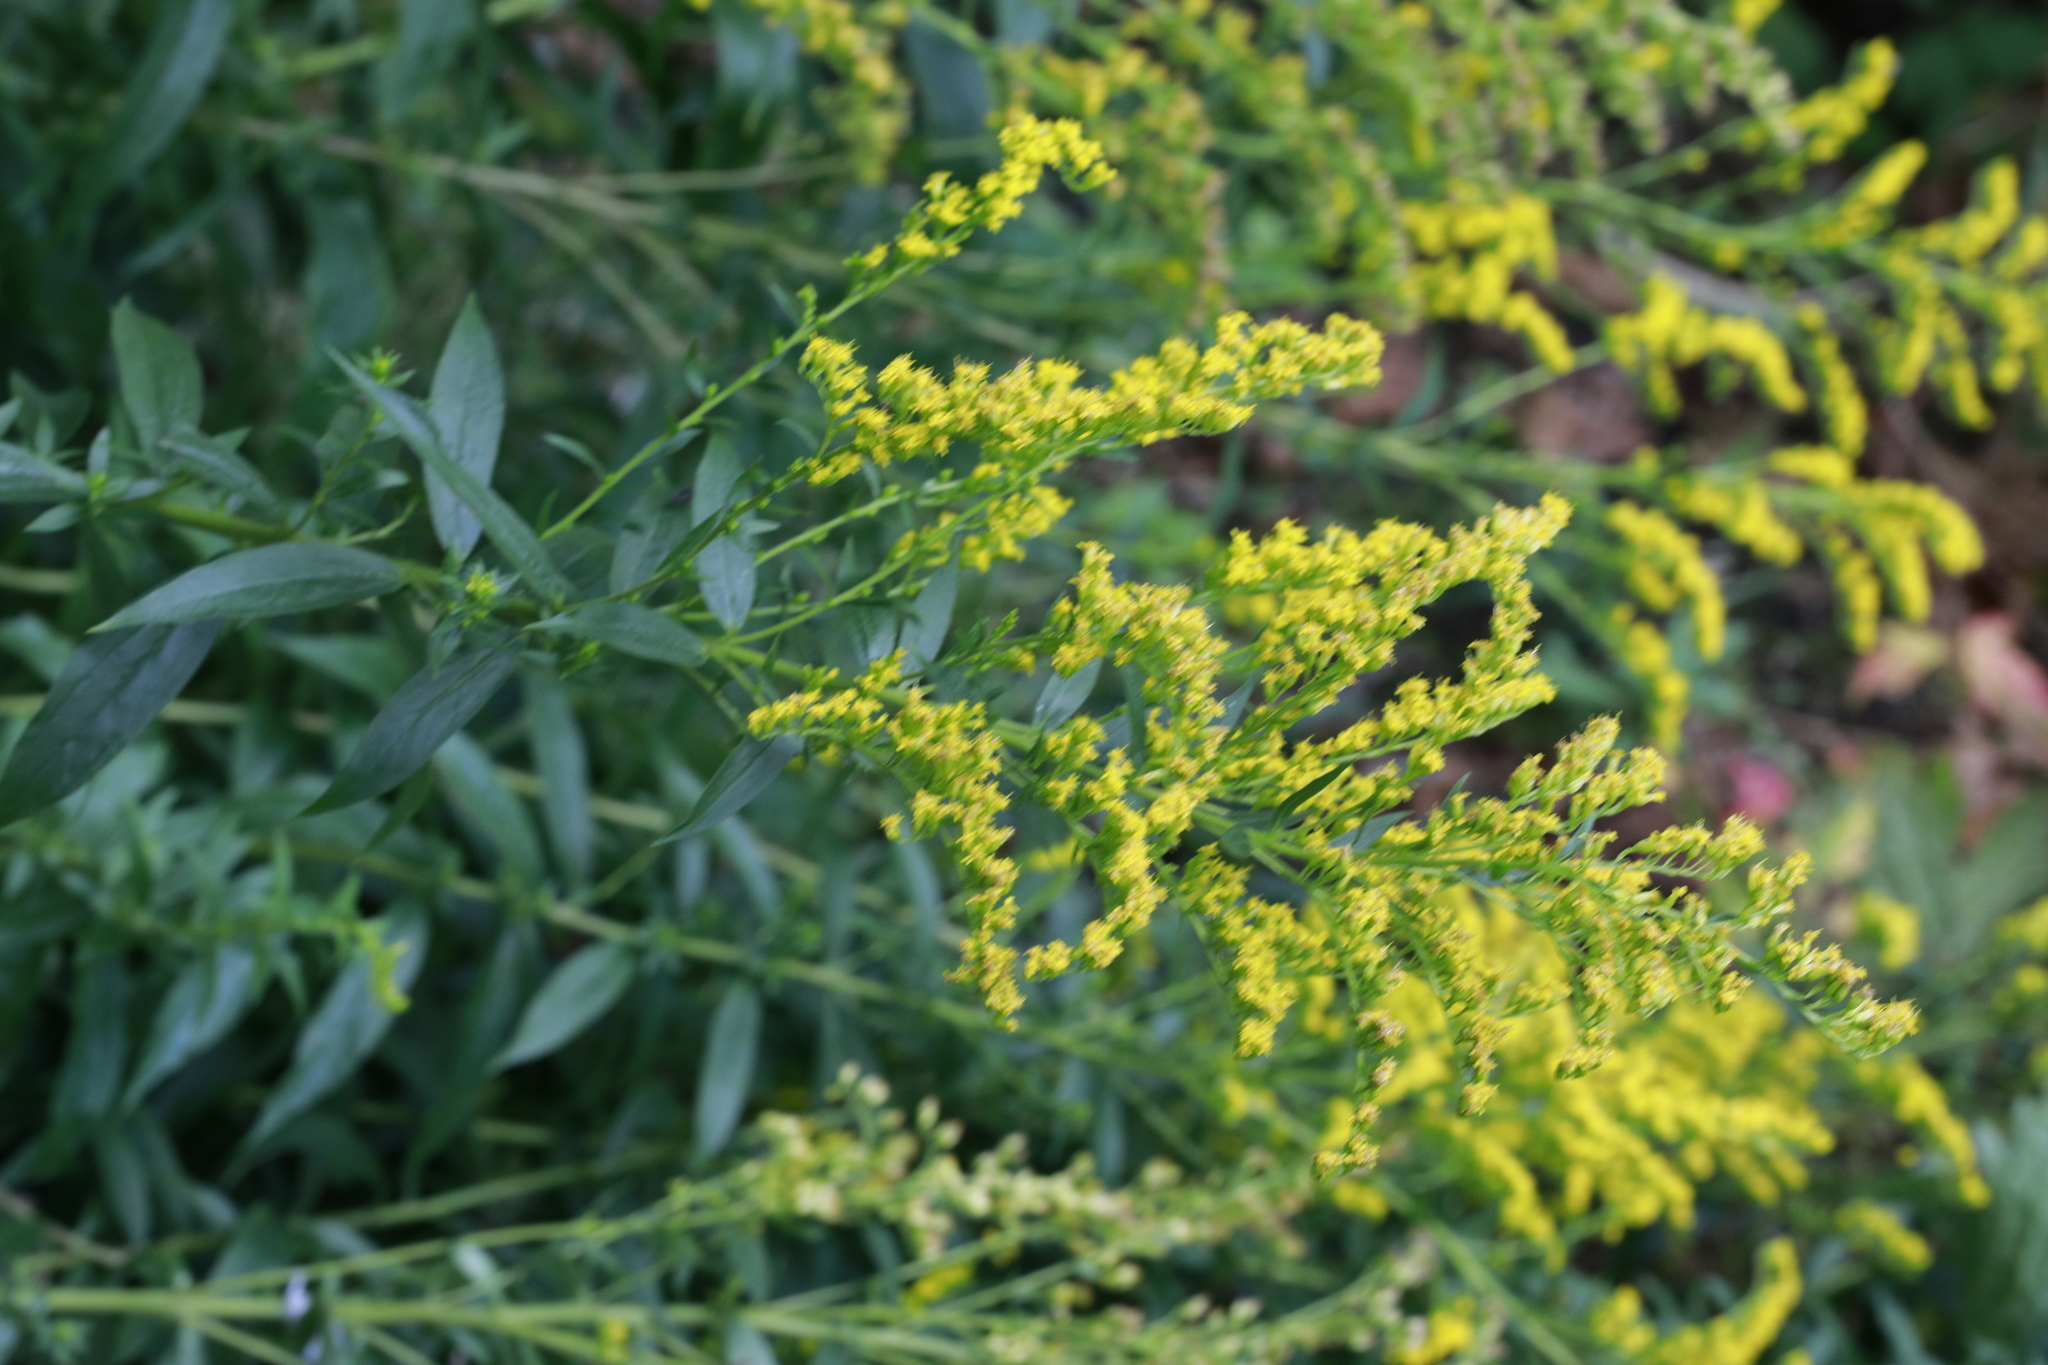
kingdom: Plantae
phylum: Tracheophyta
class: Magnoliopsida
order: Asterales
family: Asteraceae
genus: Solidago
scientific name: Solidago canadensis
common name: Canada goldenrod
